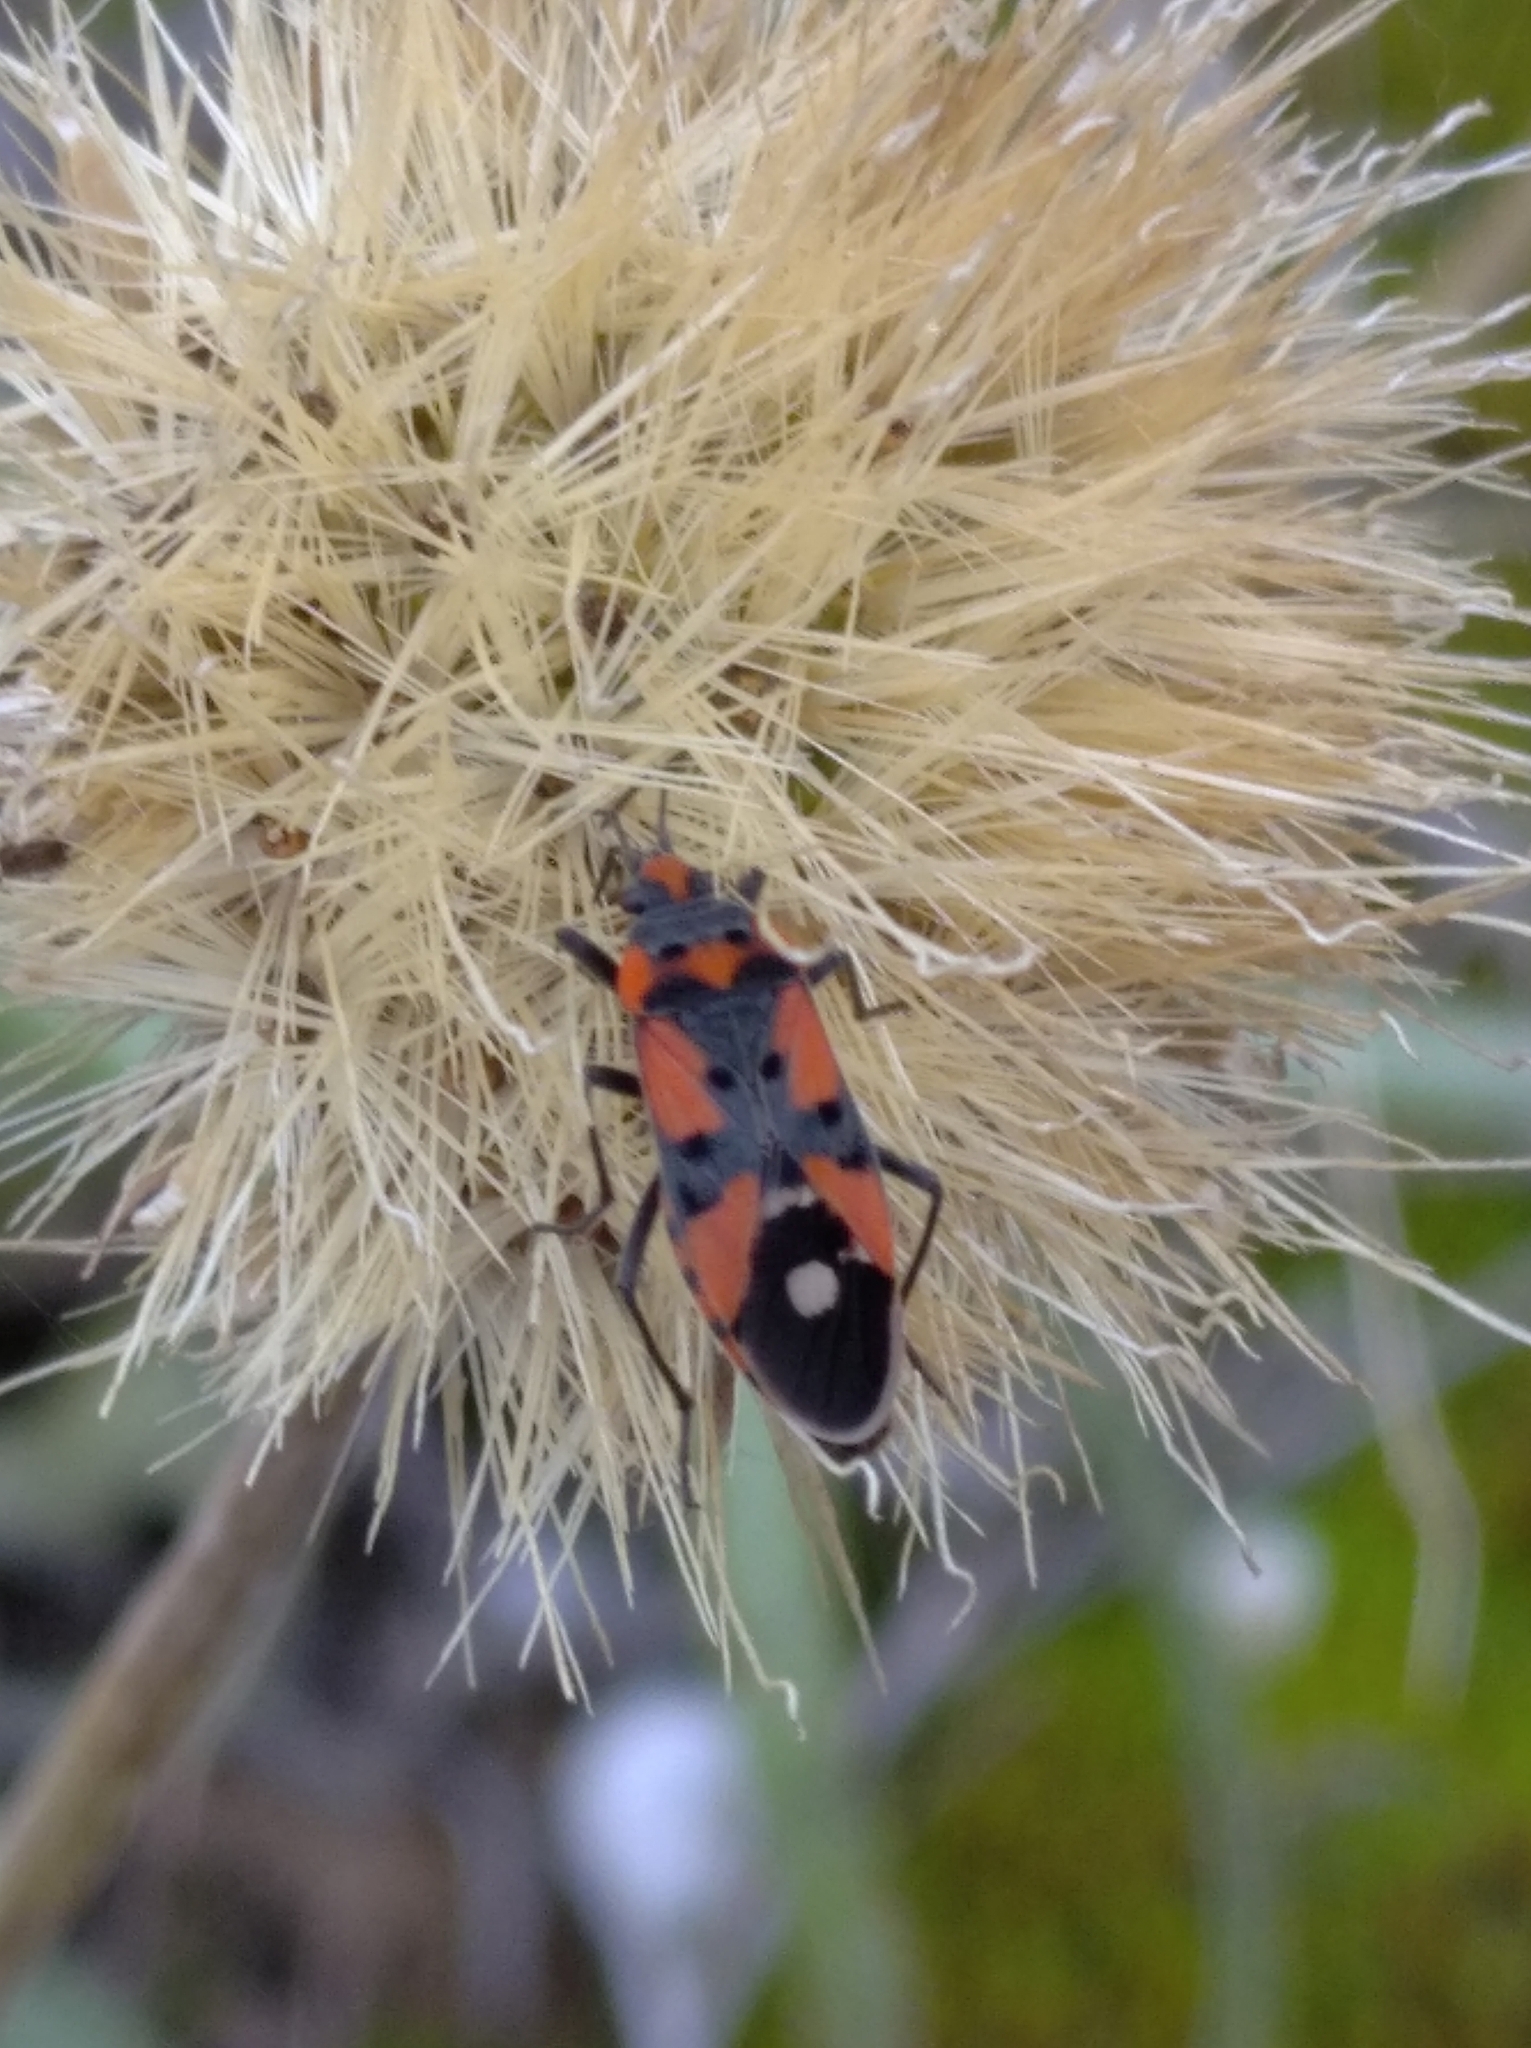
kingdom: Animalia
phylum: Arthropoda
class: Insecta
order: Hemiptera
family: Lygaeidae
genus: Lygaeus
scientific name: Lygaeus equestris
